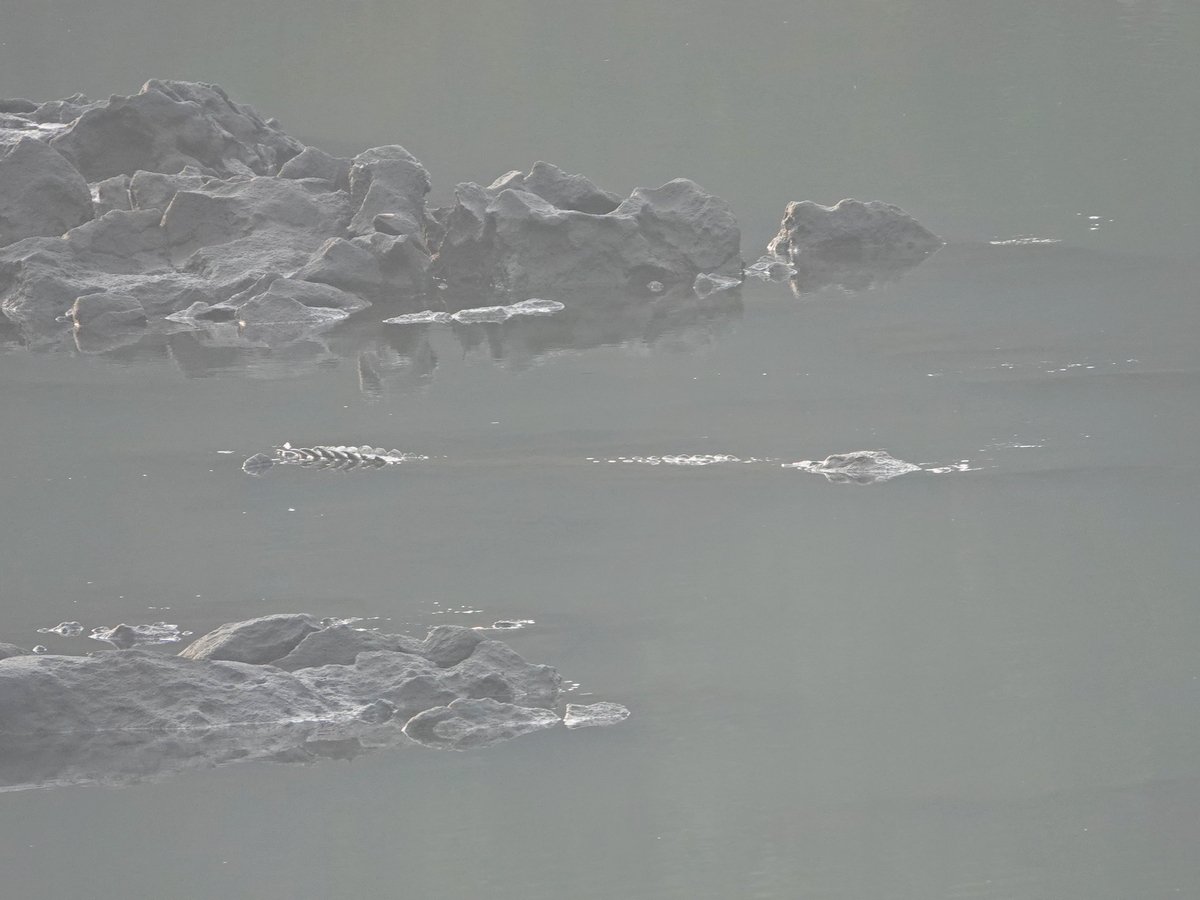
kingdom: Animalia
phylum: Chordata
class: Crocodylia
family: Crocodylidae
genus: Crocodylus
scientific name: Crocodylus palustris
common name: Mugger crocodile
